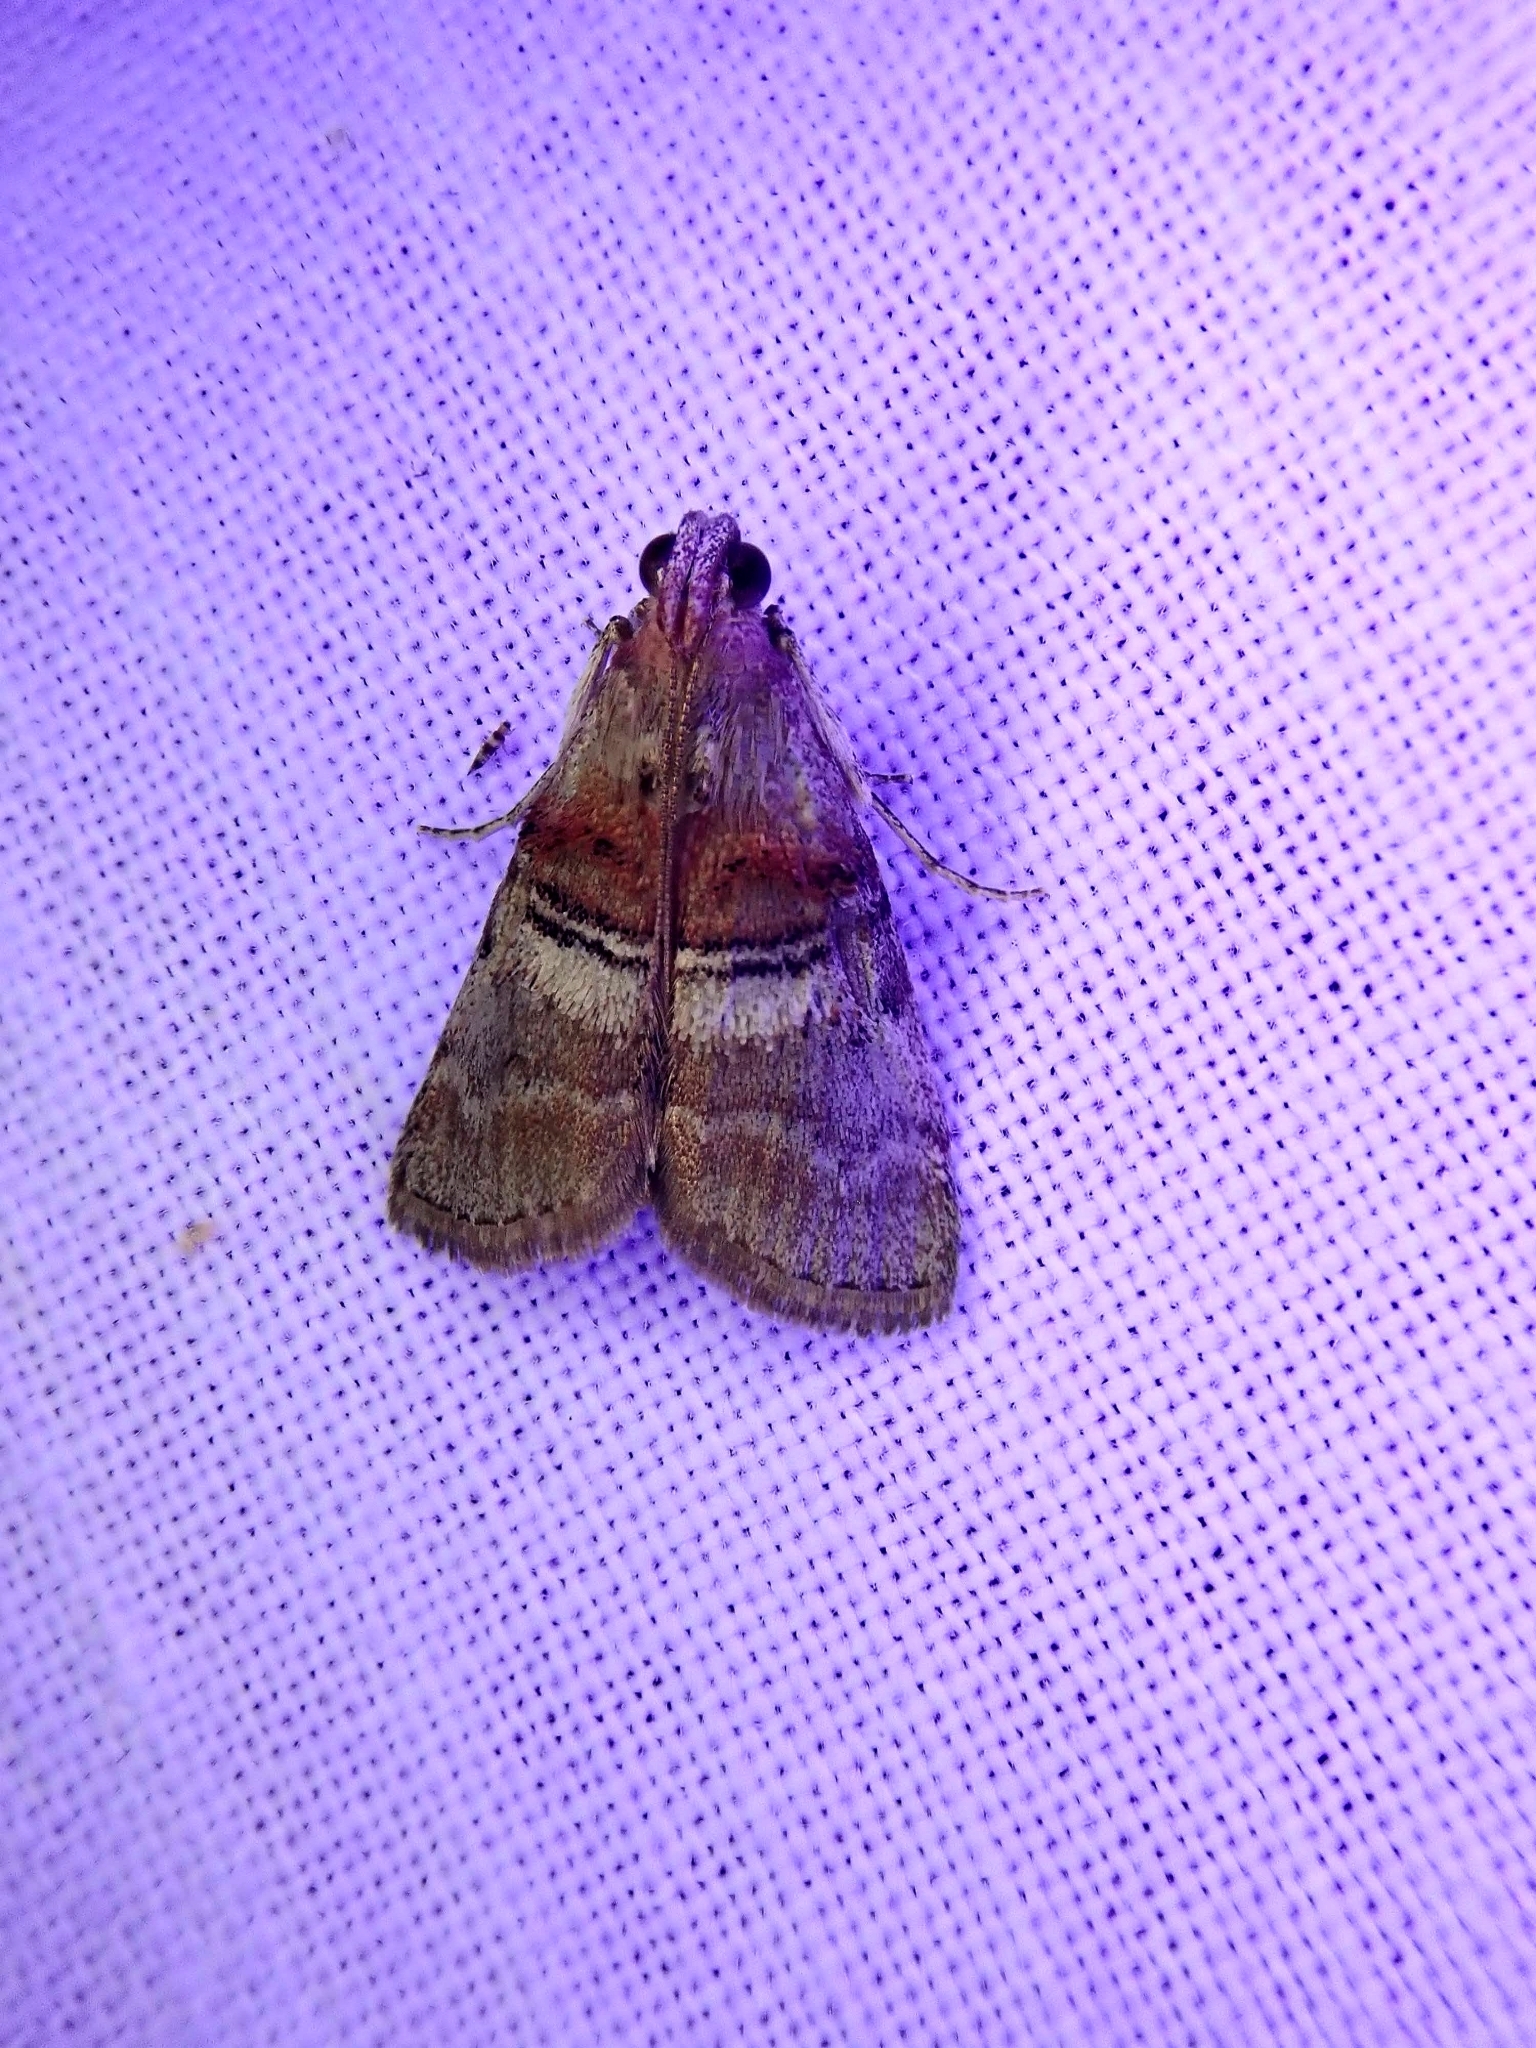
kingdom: Animalia
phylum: Arthropoda
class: Insecta
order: Lepidoptera
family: Pyralidae
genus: Pococera
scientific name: Pococera militella
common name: Sycamore webworm moth
